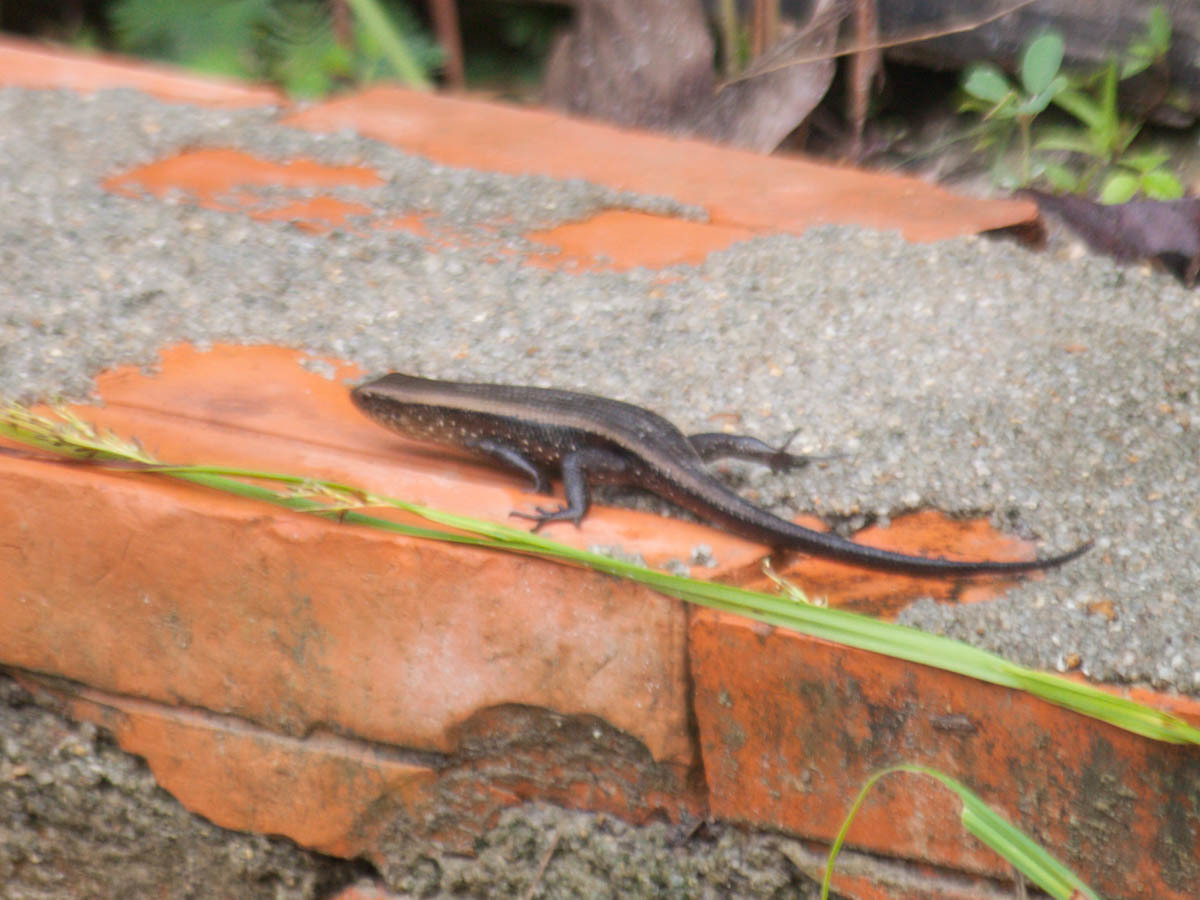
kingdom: Animalia
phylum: Chordata
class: Squamata
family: Scincidae
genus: Eutropis
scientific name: Eutropis multifasciata
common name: Common mabuya
